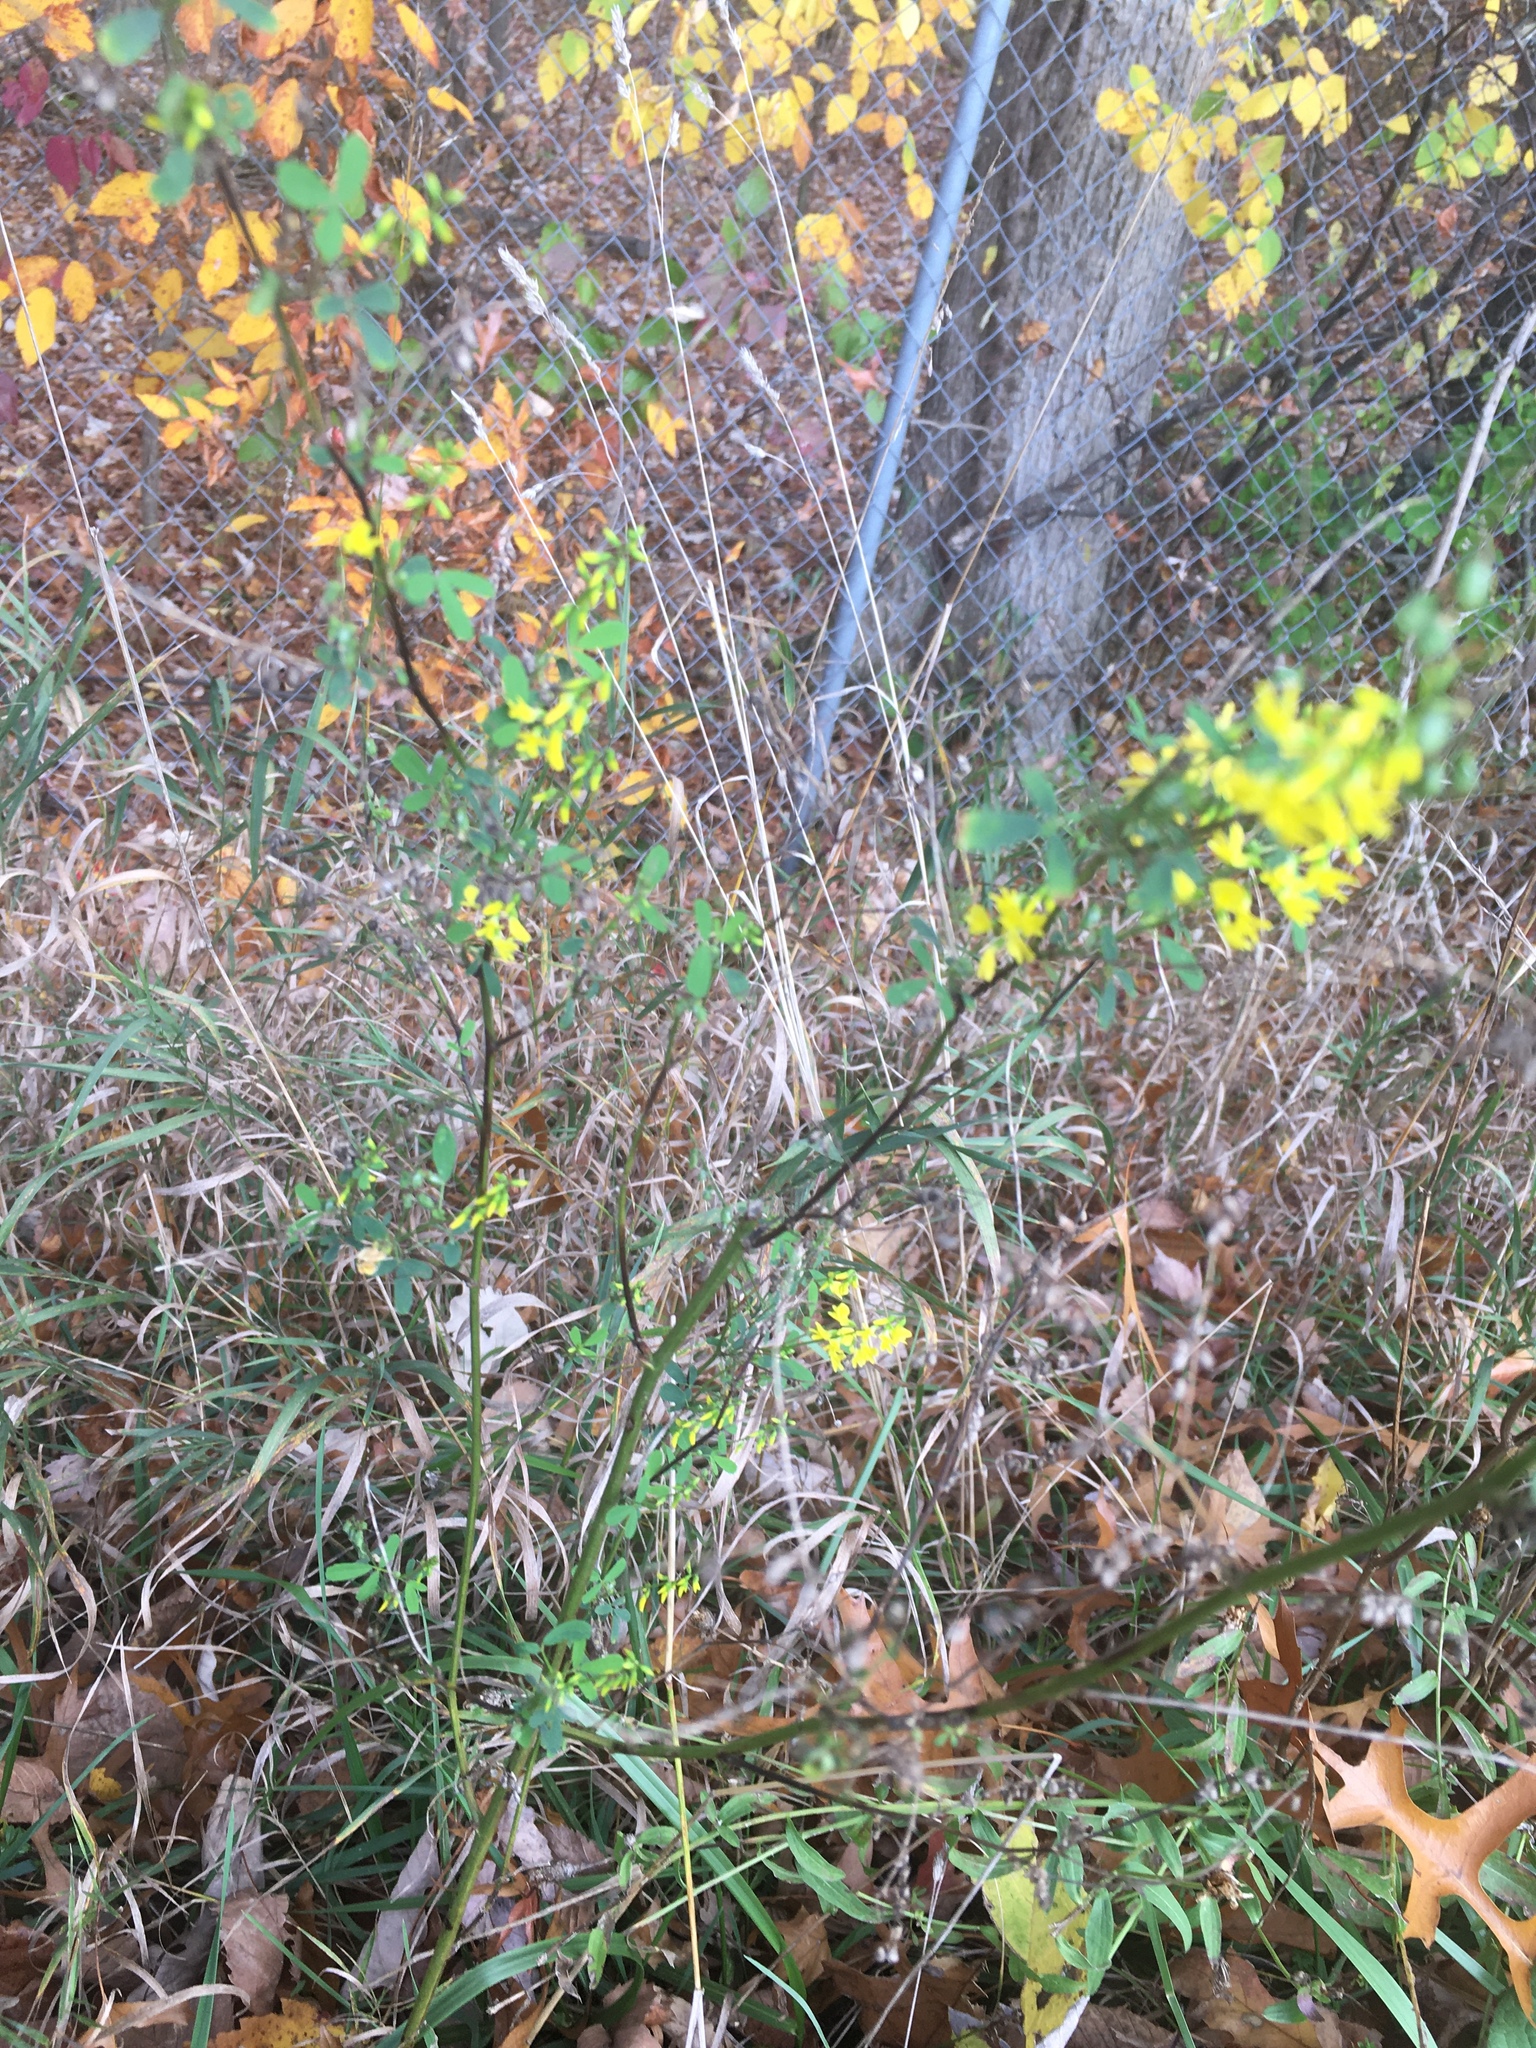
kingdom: Plantae
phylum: Tracheophyta
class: Magnoliopsida
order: Fabales
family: Fabaceae
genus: Melilotus
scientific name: Melilotus officinalis
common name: Sweetclover
